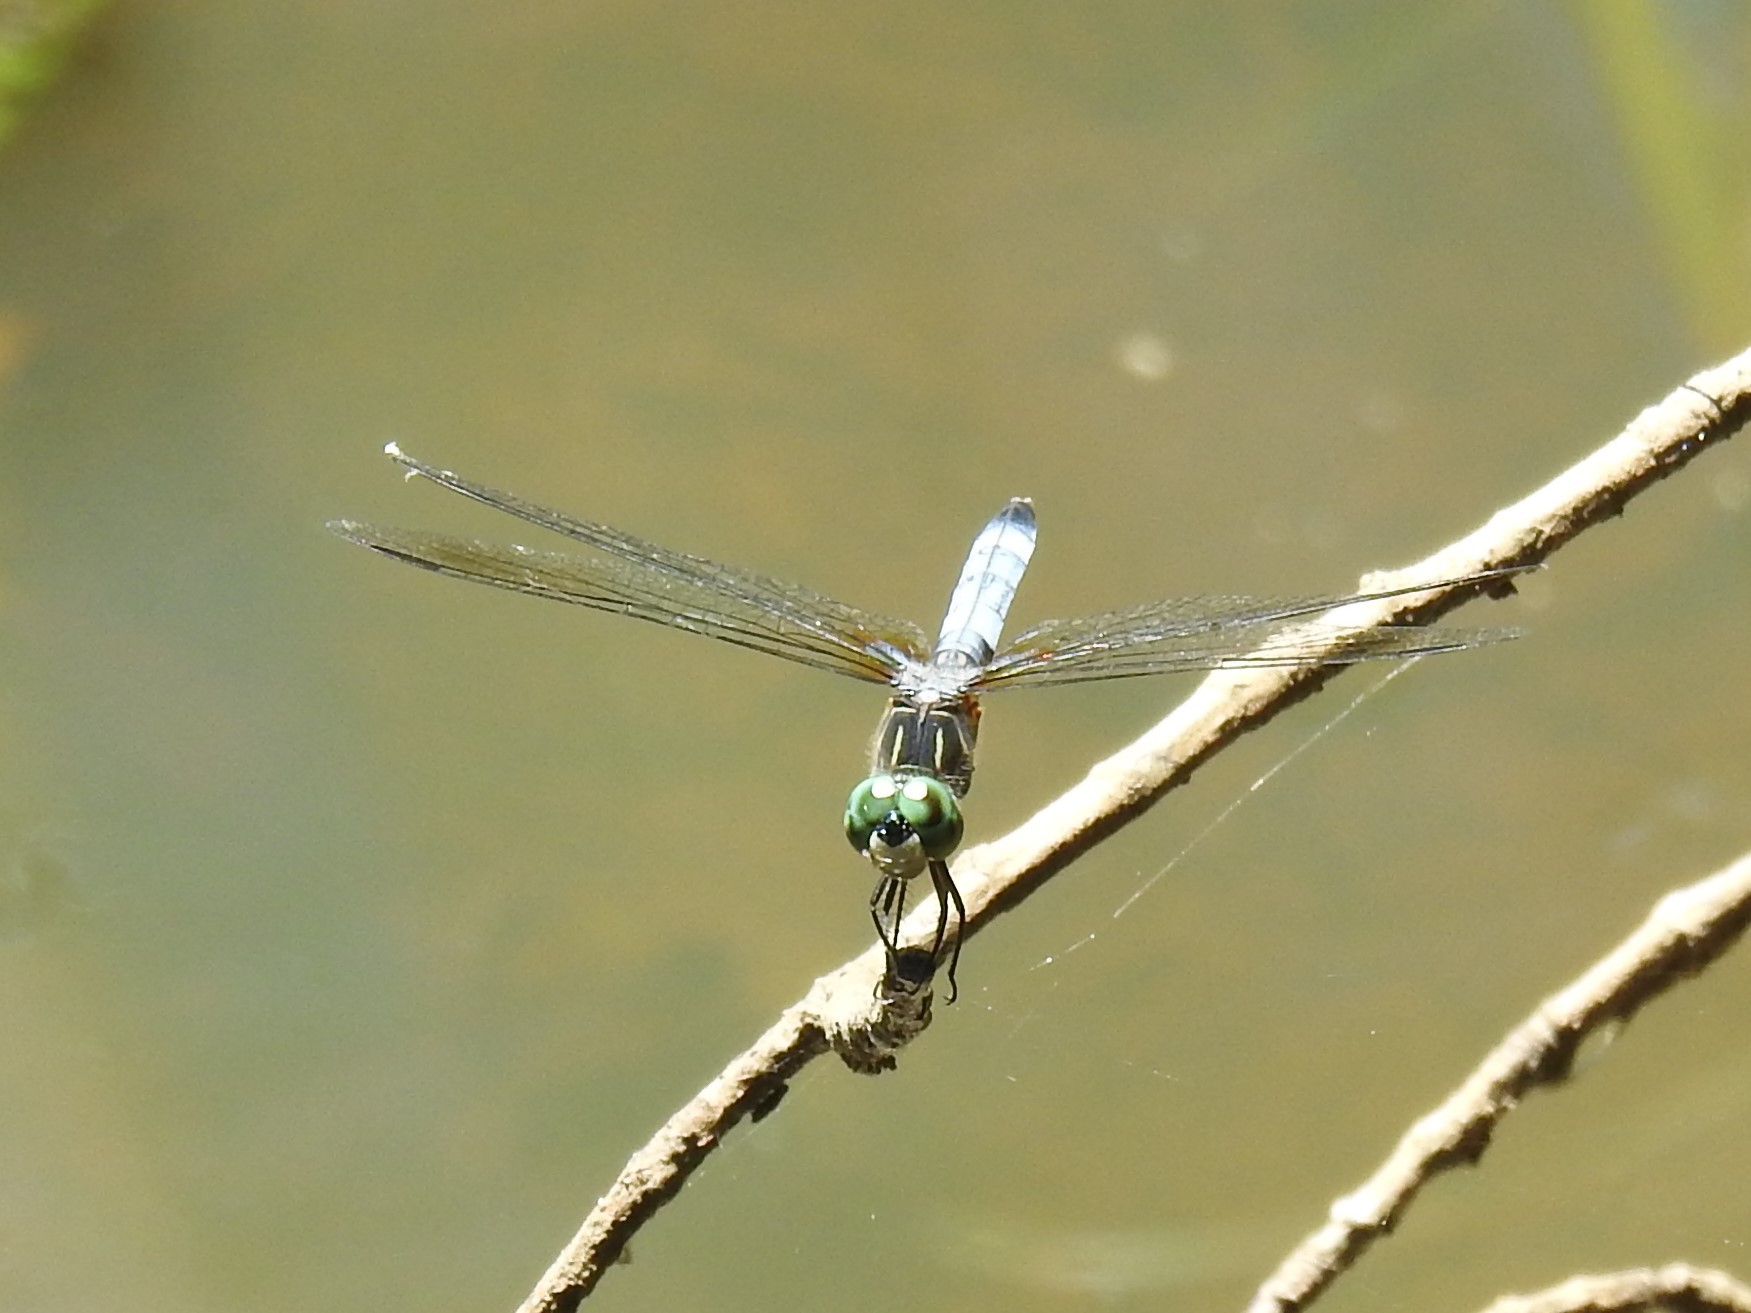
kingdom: Animalia
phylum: Arthropoda
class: Insecta
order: Odonata
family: Libellulidae
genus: Pachydiplax
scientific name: Pachydiplax longipennis
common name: Blue dasher
